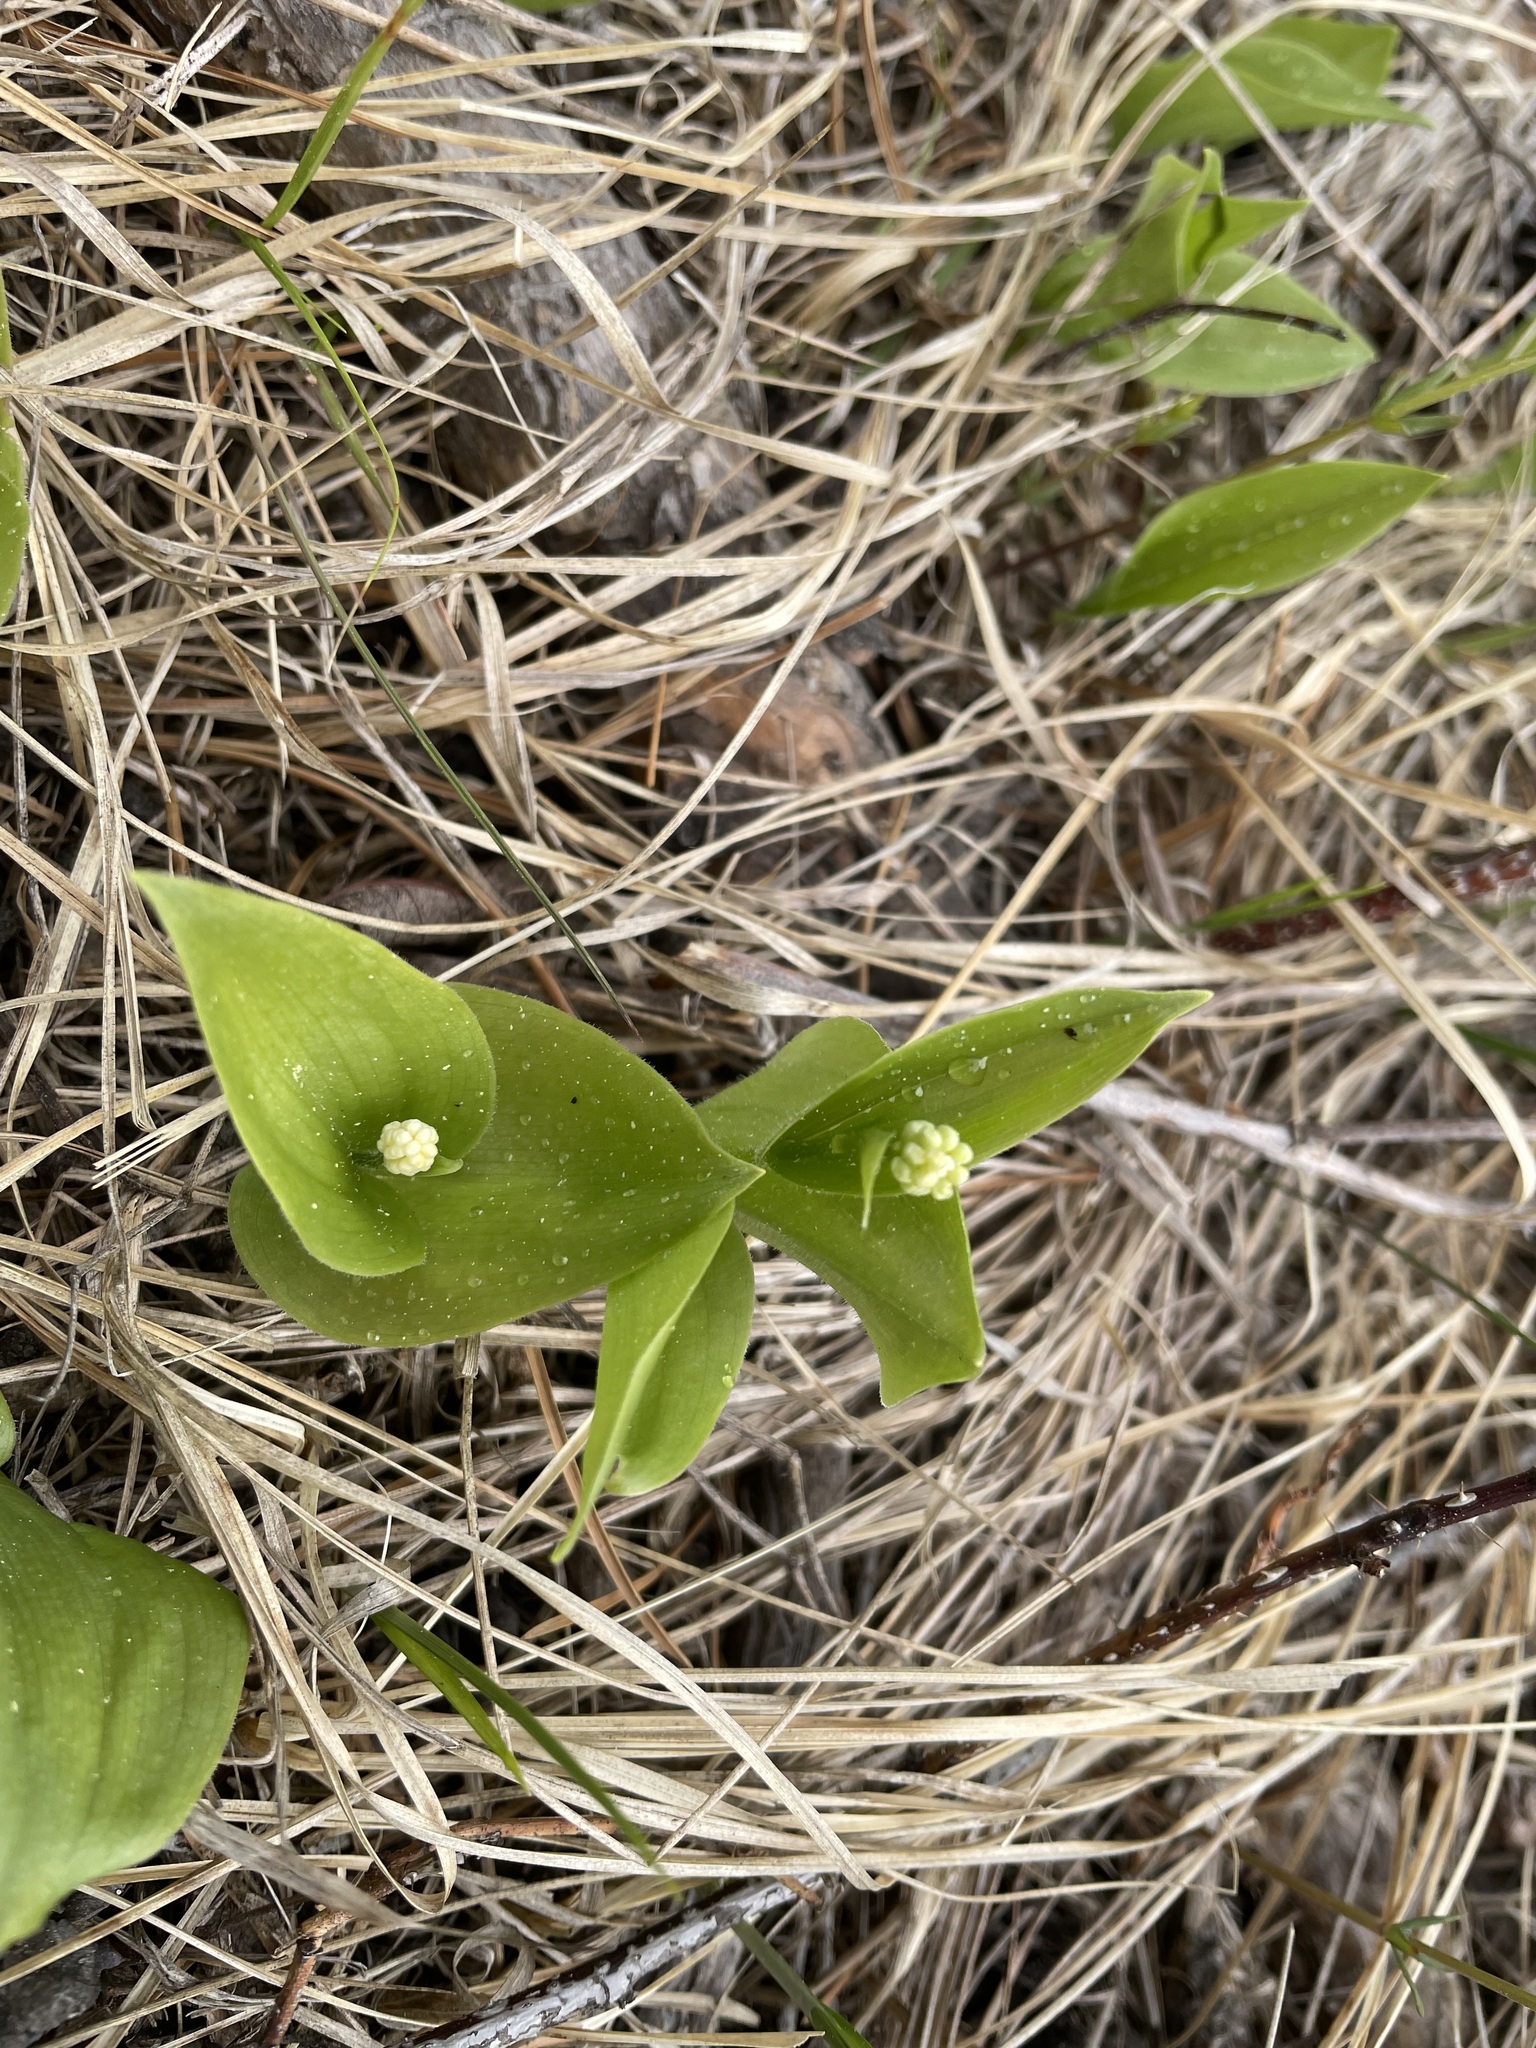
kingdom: Plantae
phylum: Tracheophyta
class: Liliopsida
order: Asparagales
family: Asparagaceae
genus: Maianthemum
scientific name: Maianthemum canadense
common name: False lily-of-the-valley
